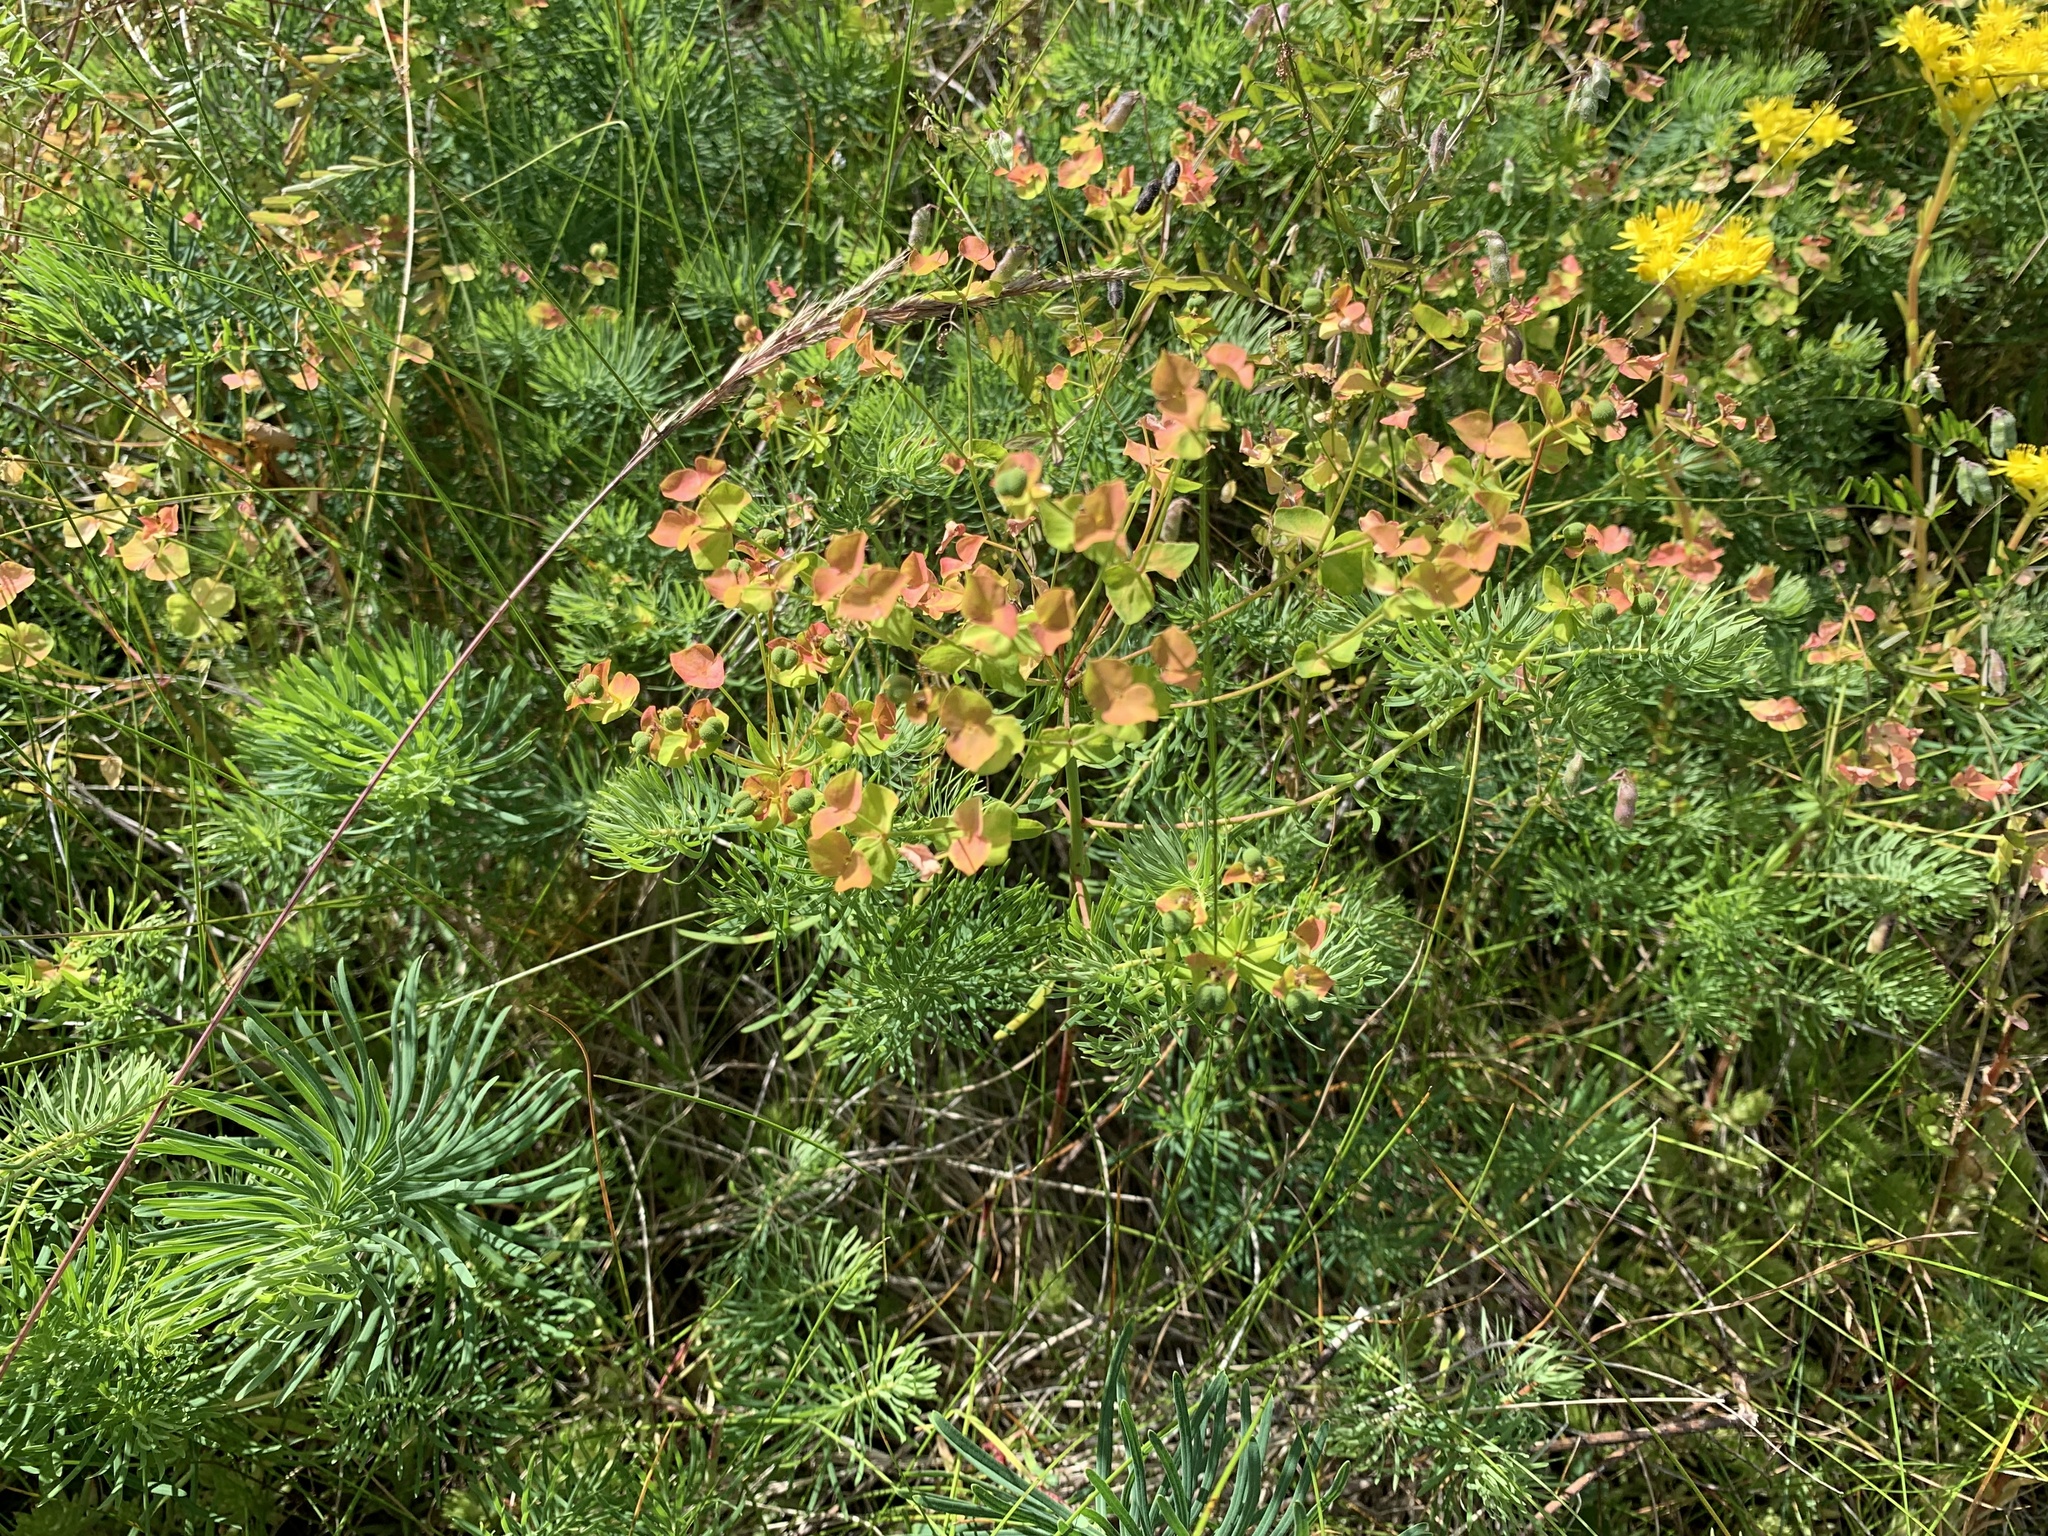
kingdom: Plantae
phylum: Tracheophyta
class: Magnoliopsida
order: Malpighiales
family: Euphorbiaceae
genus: Euphorbia
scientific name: Euphorbia cyparissias
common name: Cypress spurge
